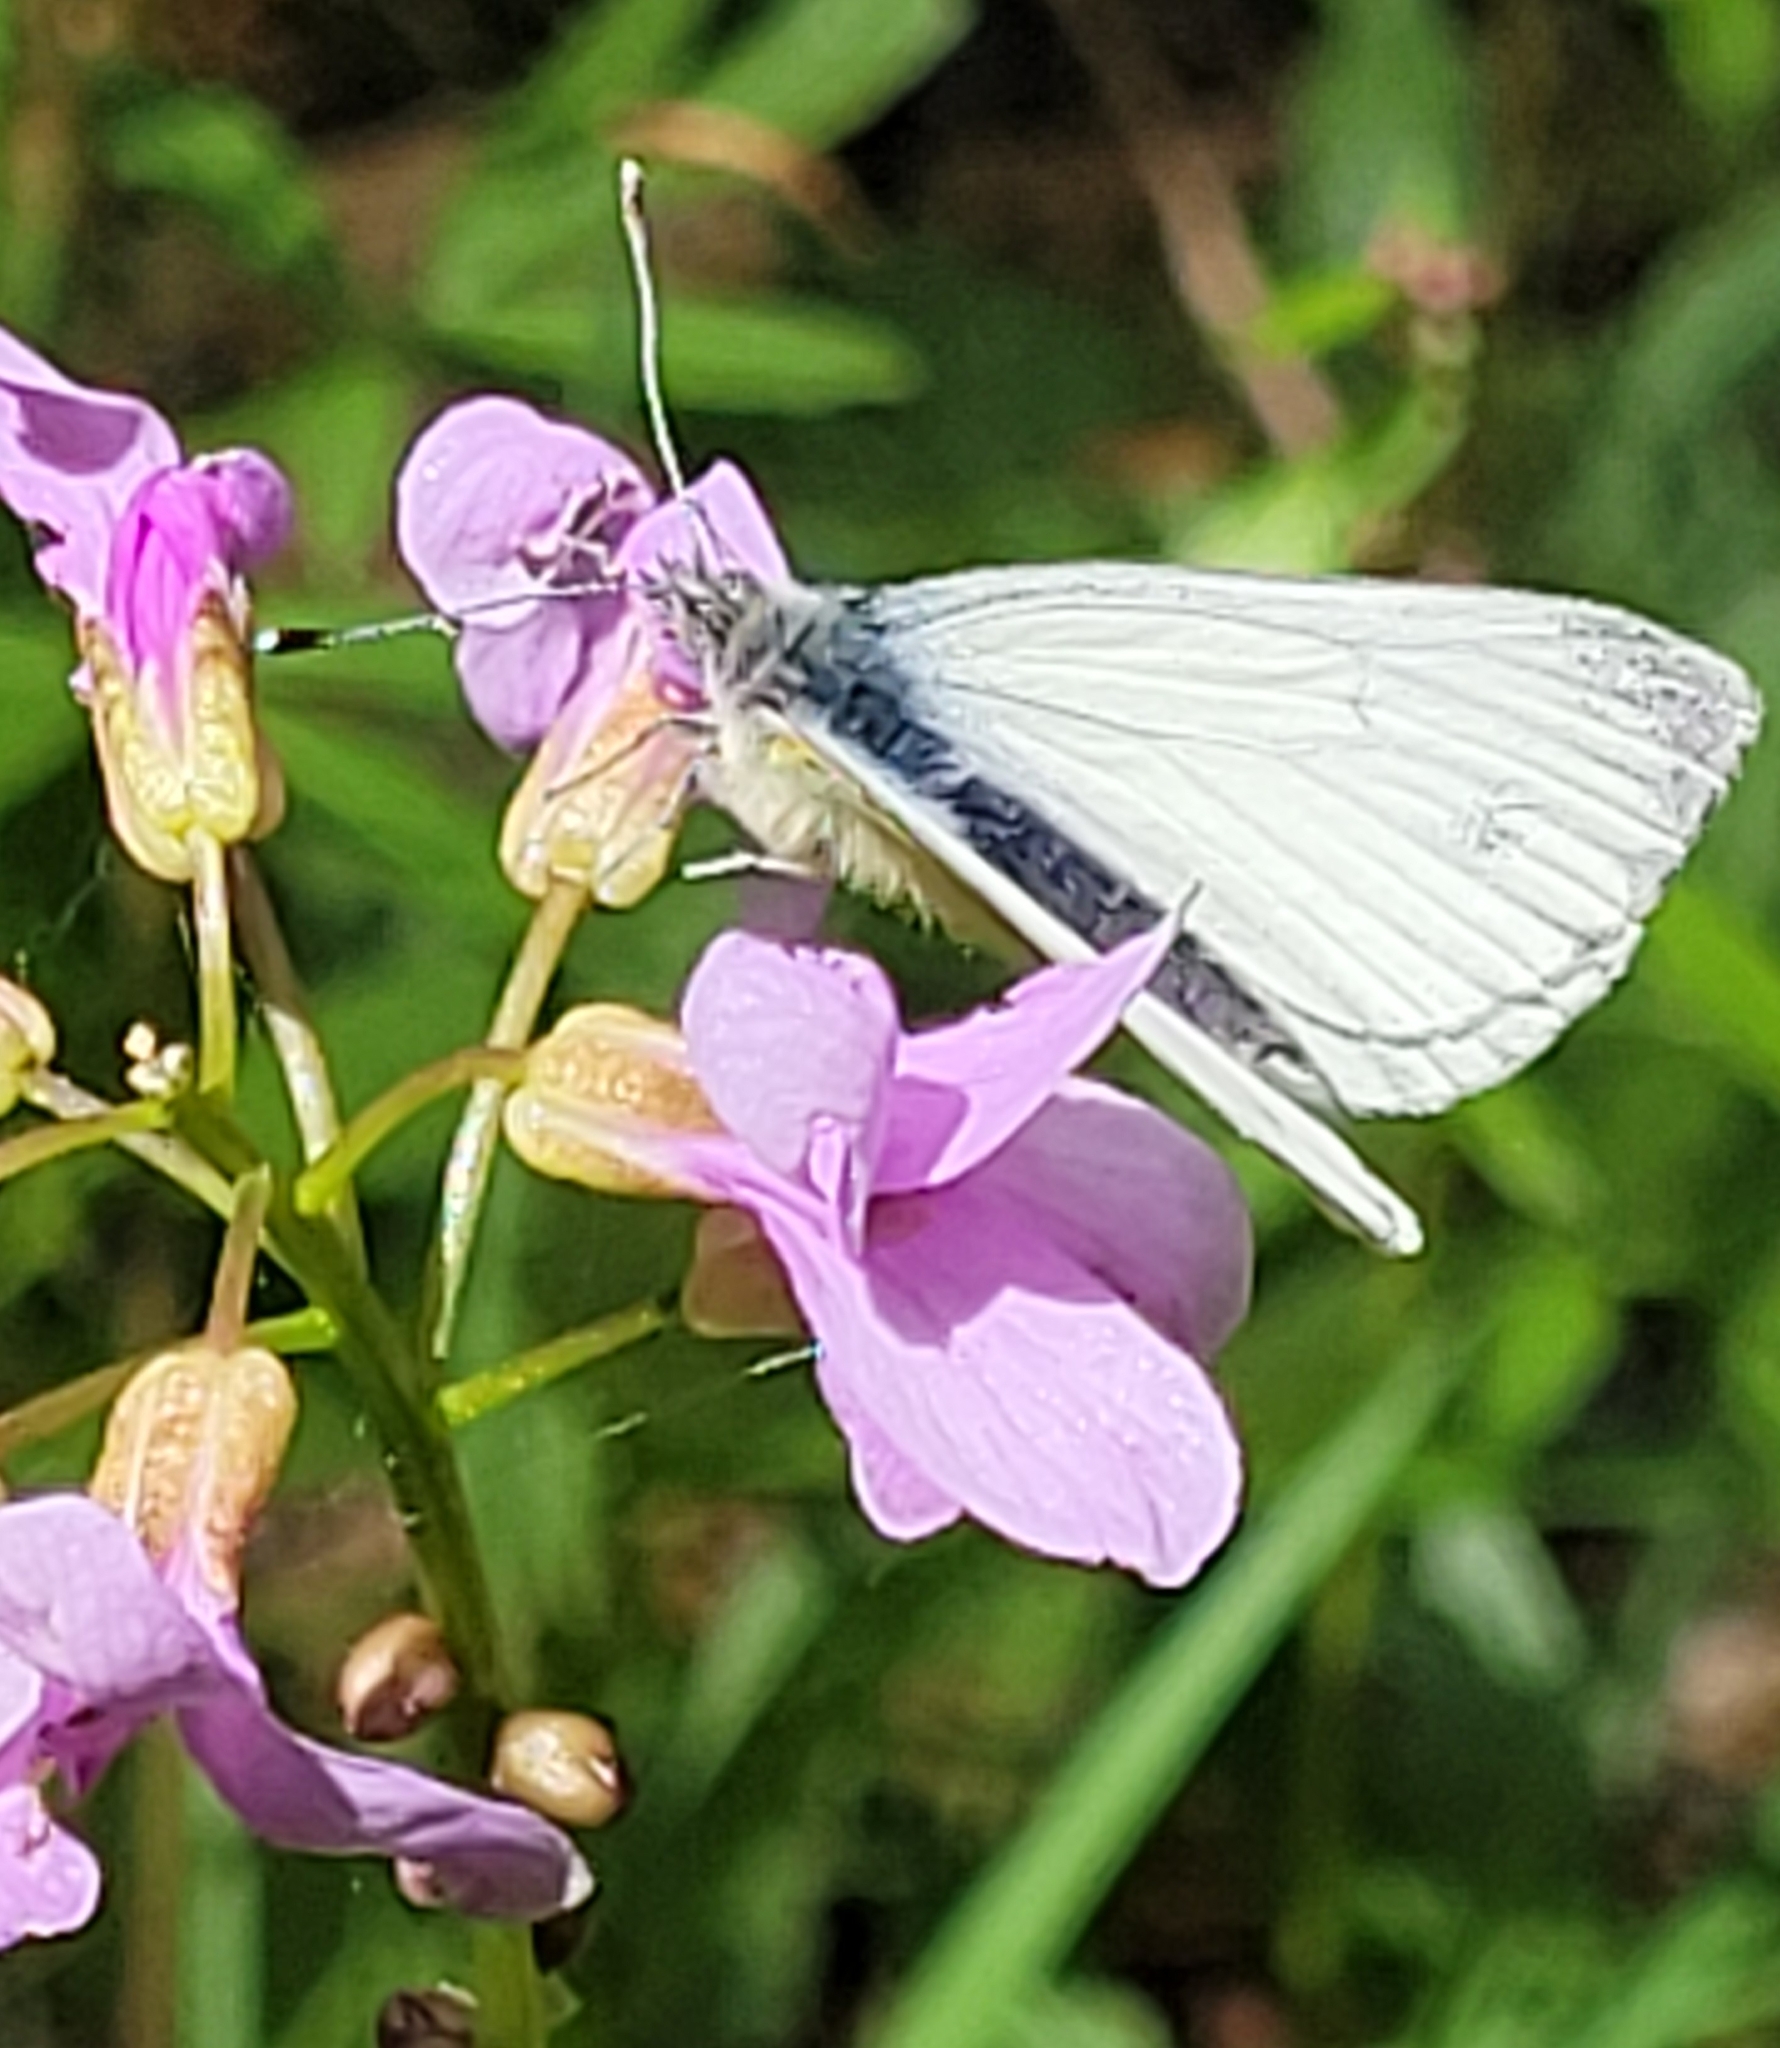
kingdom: Animalia
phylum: Arthropoda
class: Insecta
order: Lepidoptera
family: Pieridae
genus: Pieris
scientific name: Pieris napi
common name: Green-veined white
